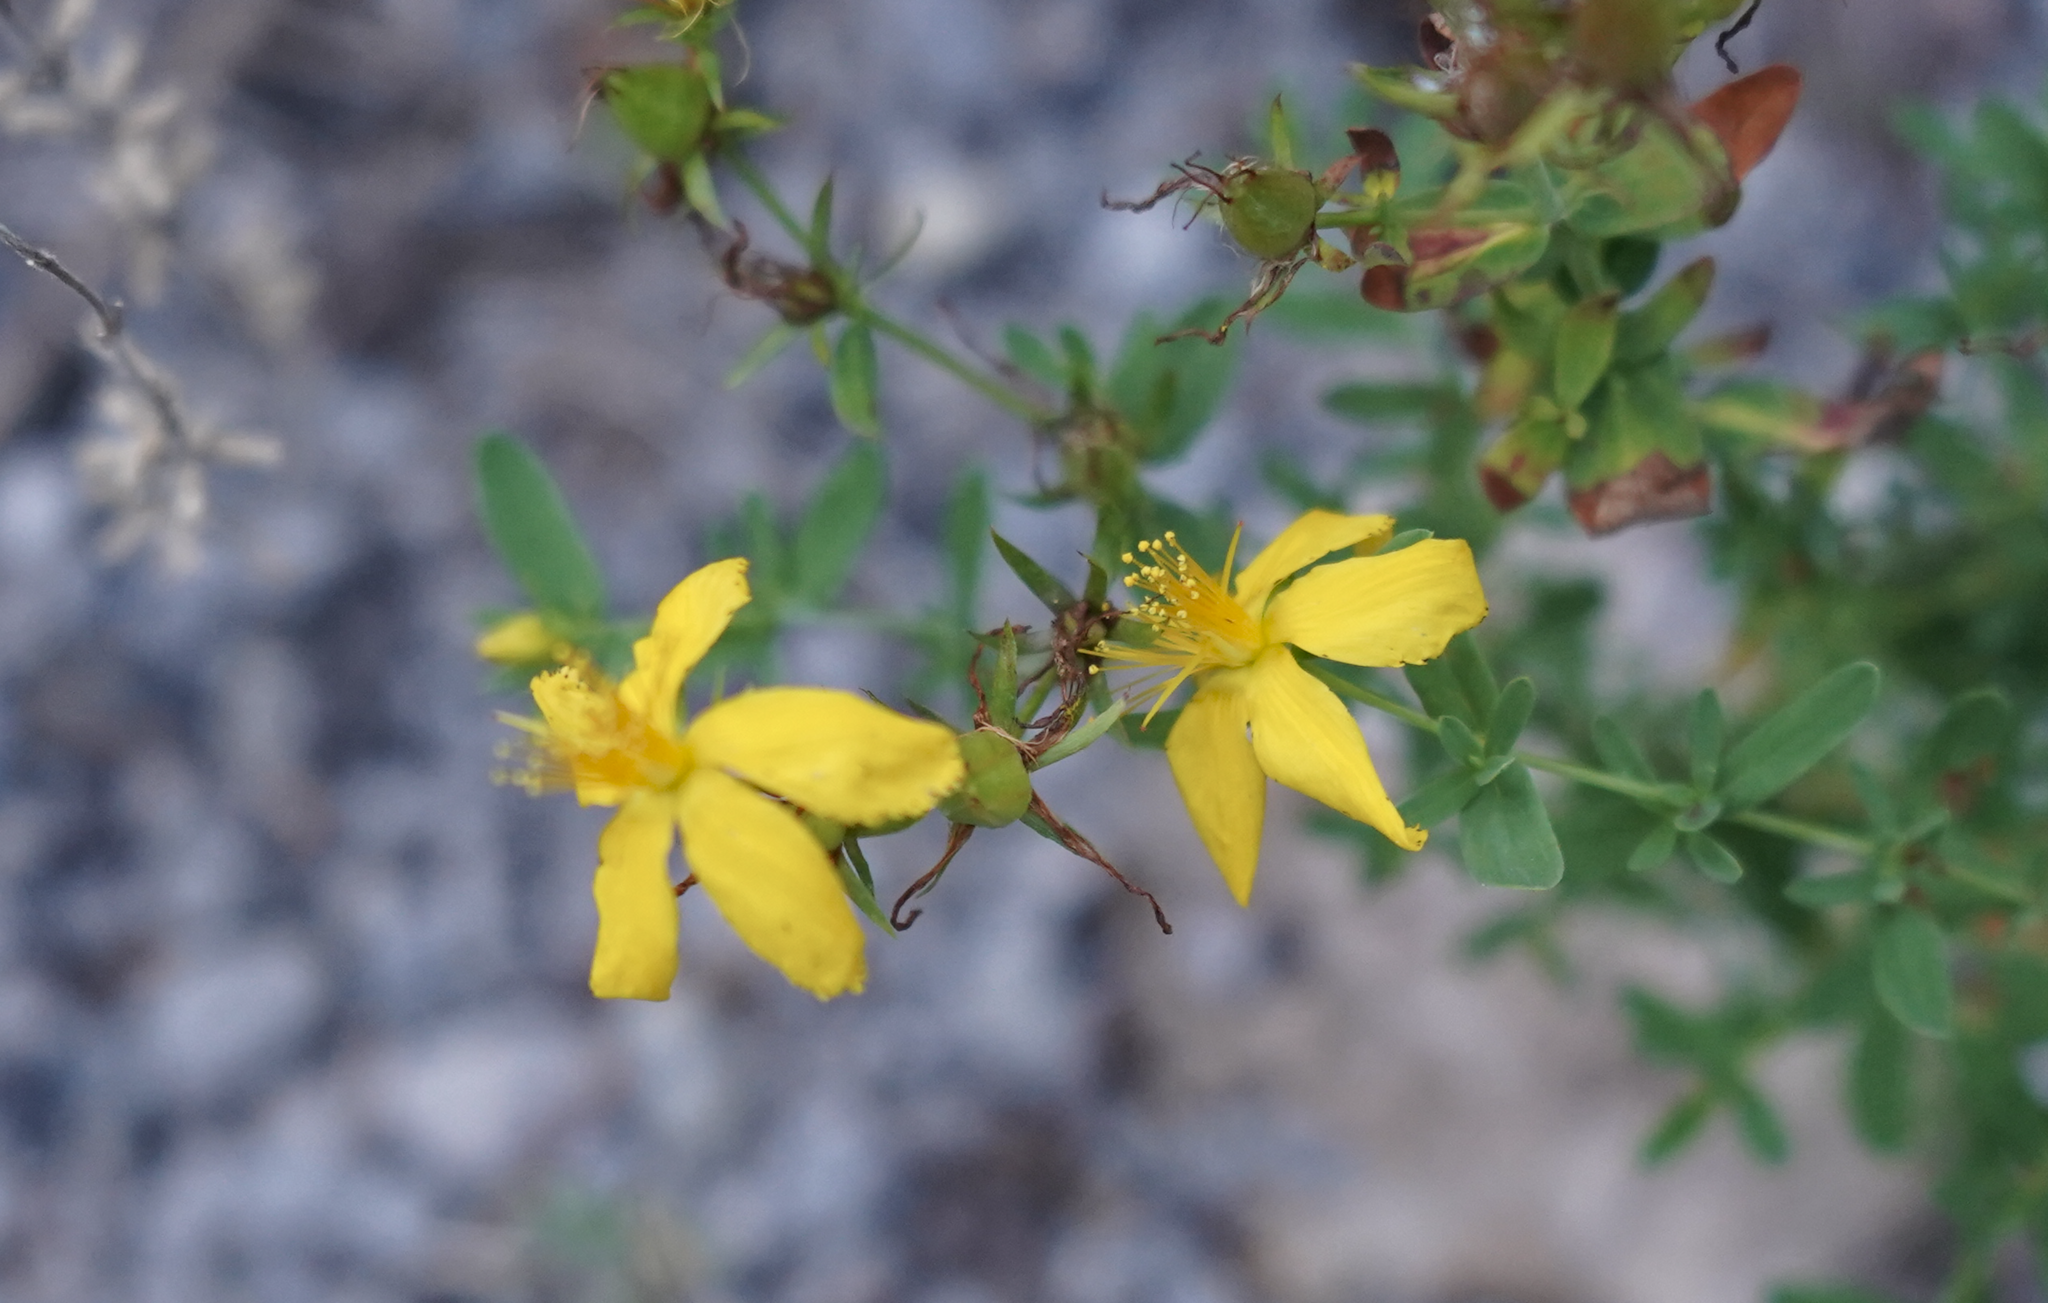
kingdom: Plantae
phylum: Tracheophyta
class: Magnoliopsida
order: Malpighiales
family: Hypericaceae
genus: Hypericum
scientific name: Hypericum perforatum
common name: Common st. johnswort
